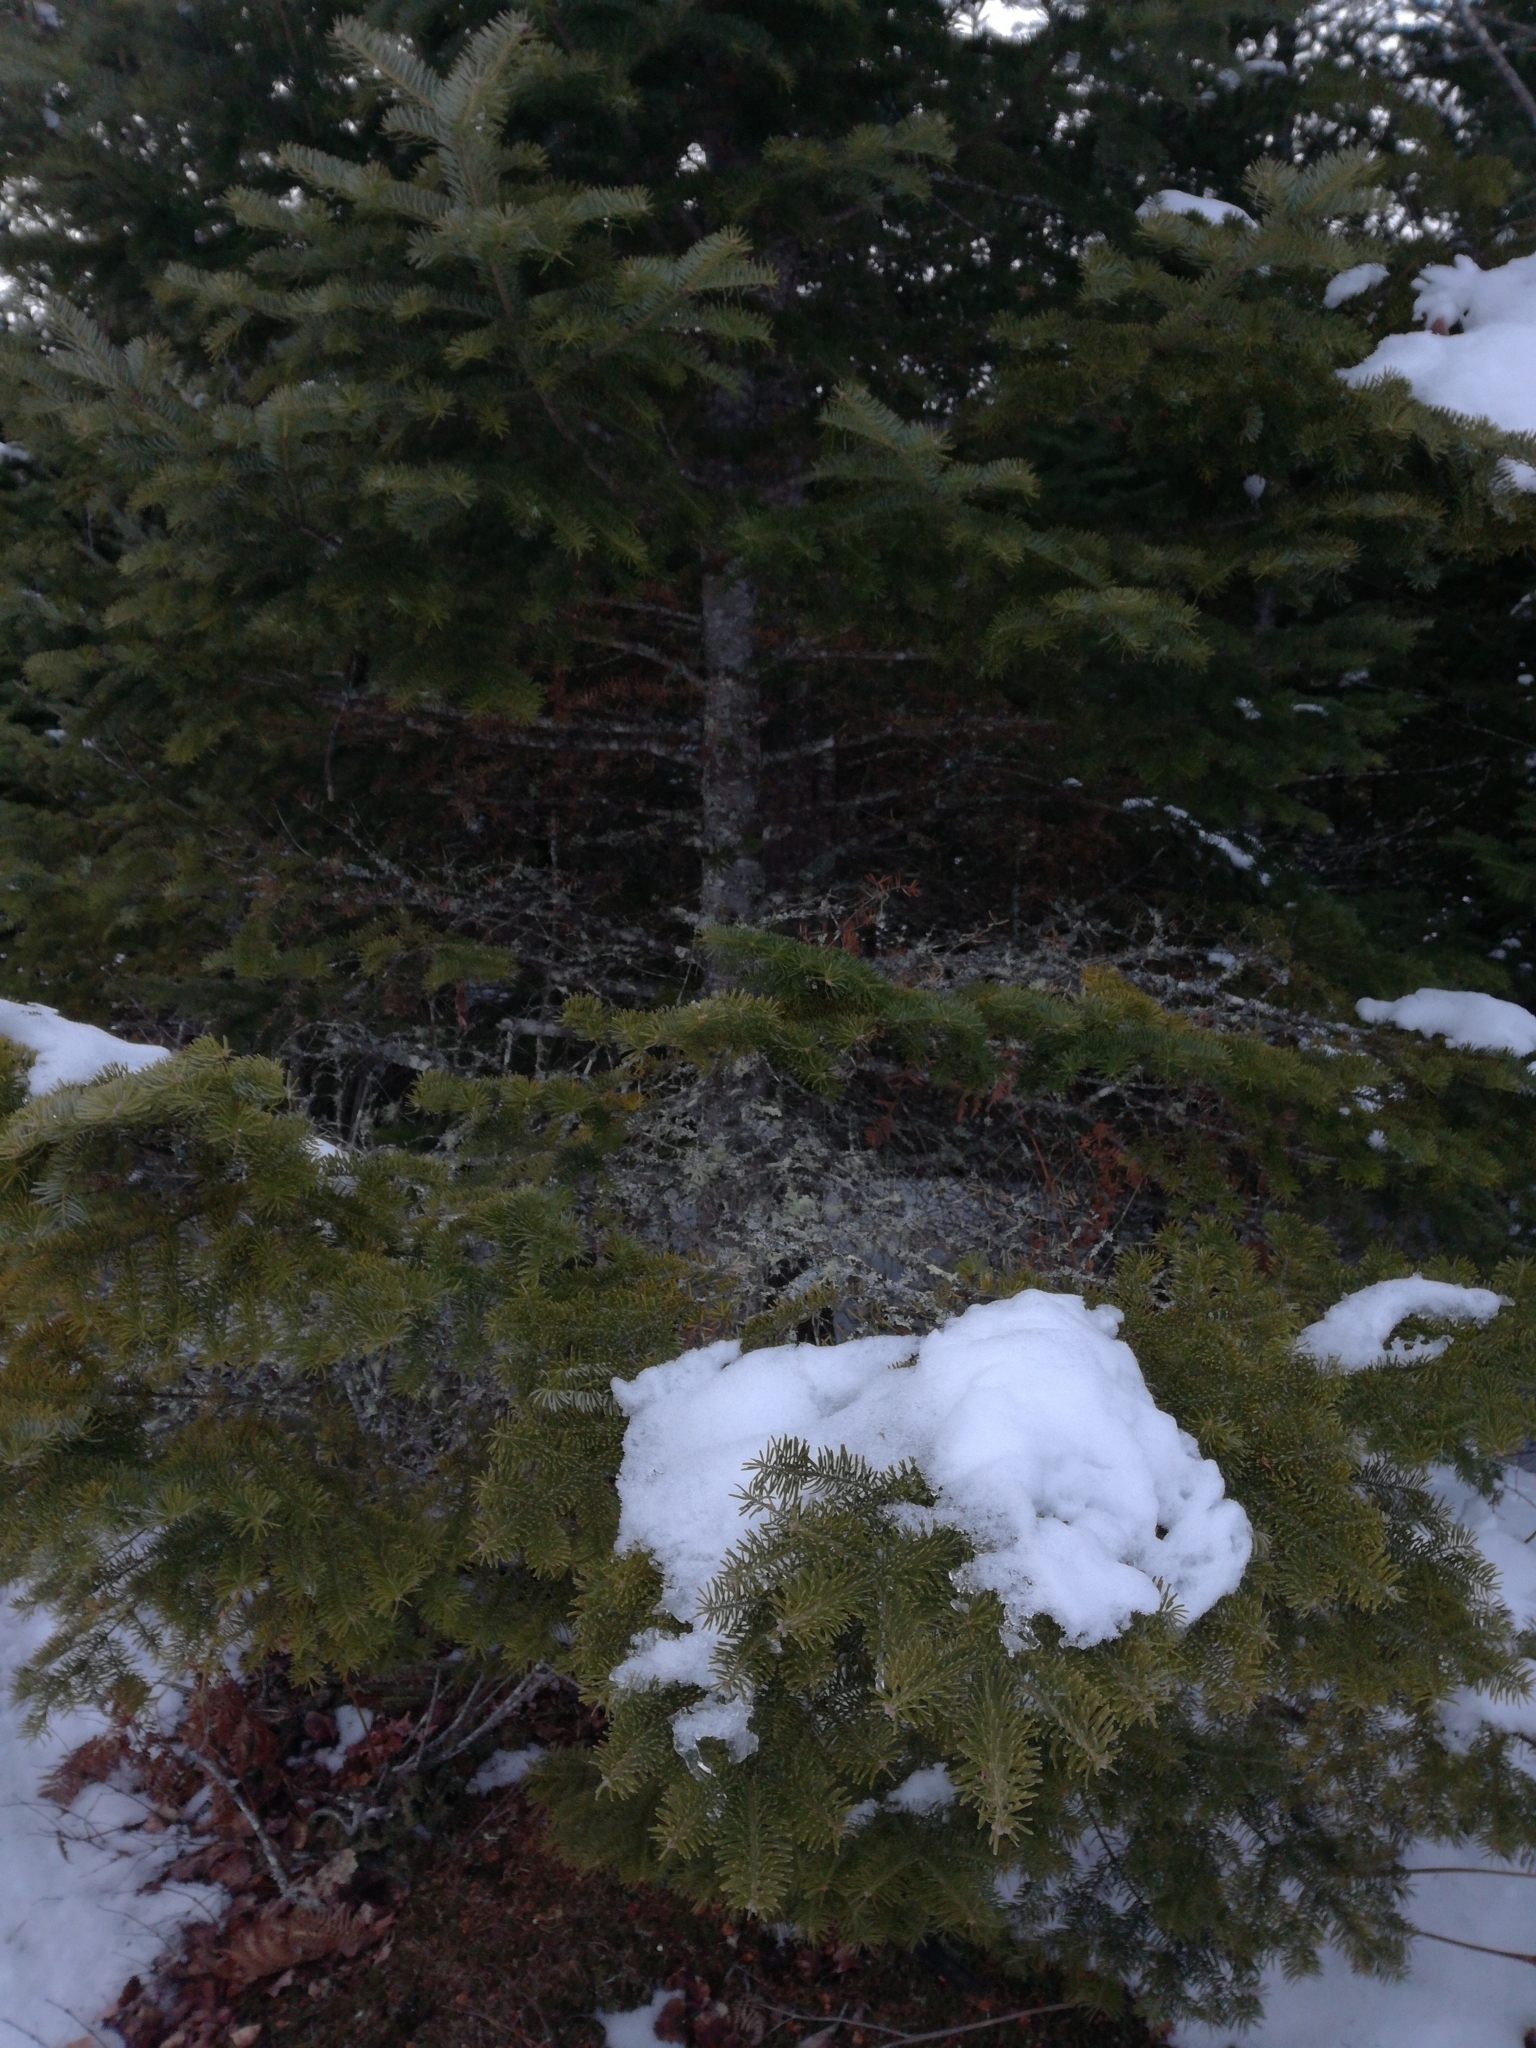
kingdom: Plantae
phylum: Tracheophyta
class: Pinopsida
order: Pinales
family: Pinaceae
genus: Abies
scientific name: Abies balsamea
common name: Balsam fir
